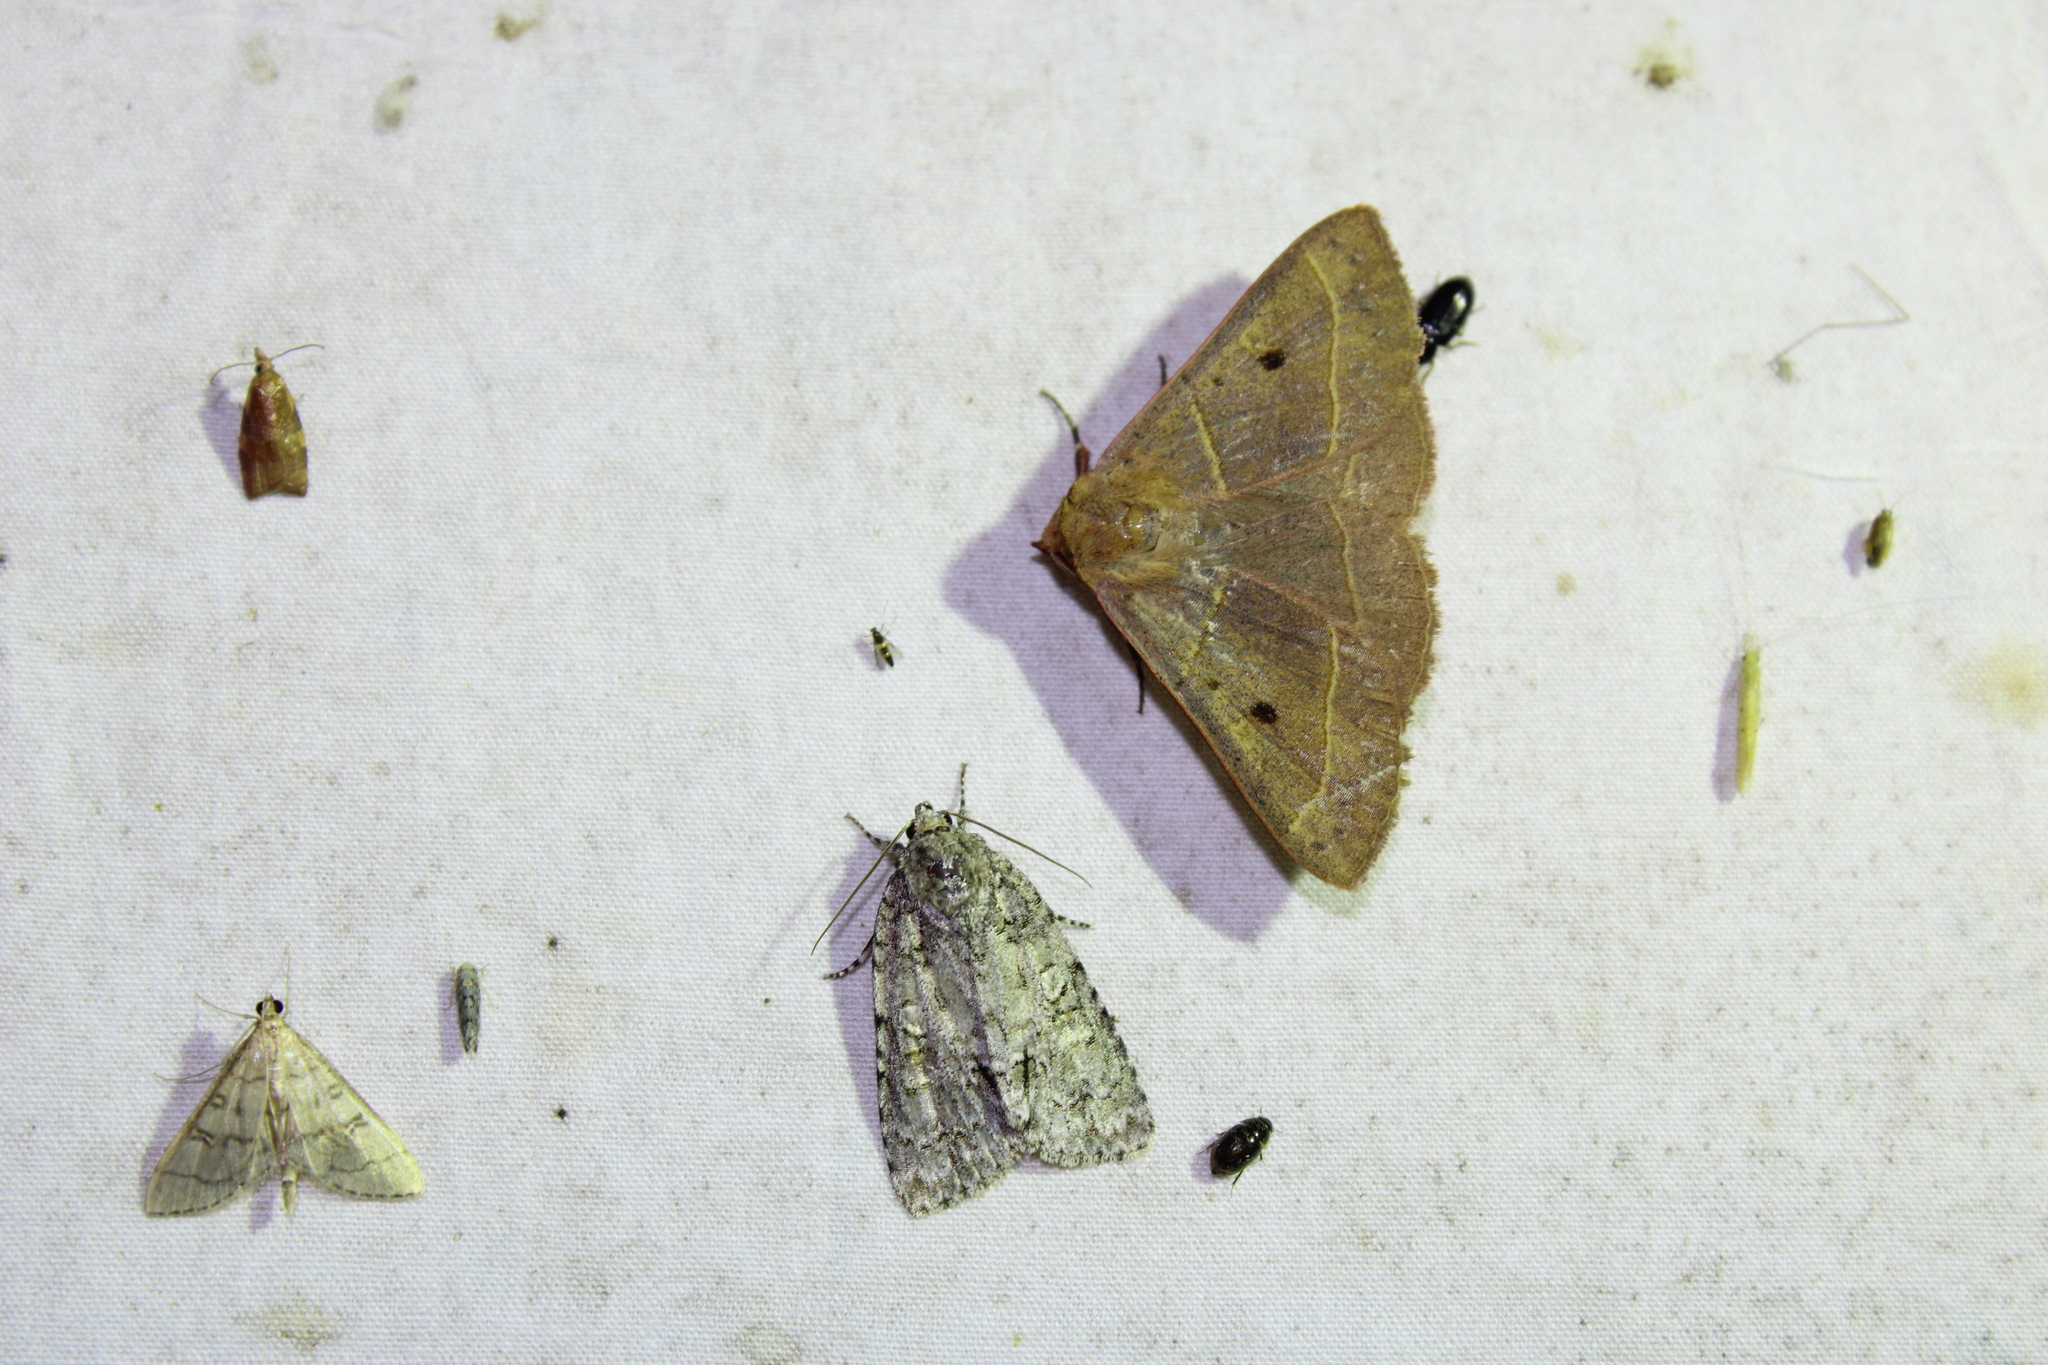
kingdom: Animalia
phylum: Arthropoda
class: Insecta
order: Lepidoptera
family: Erebidae
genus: Panopoda
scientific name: Panopoda rufimargo
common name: Red-lined panopoda moth
